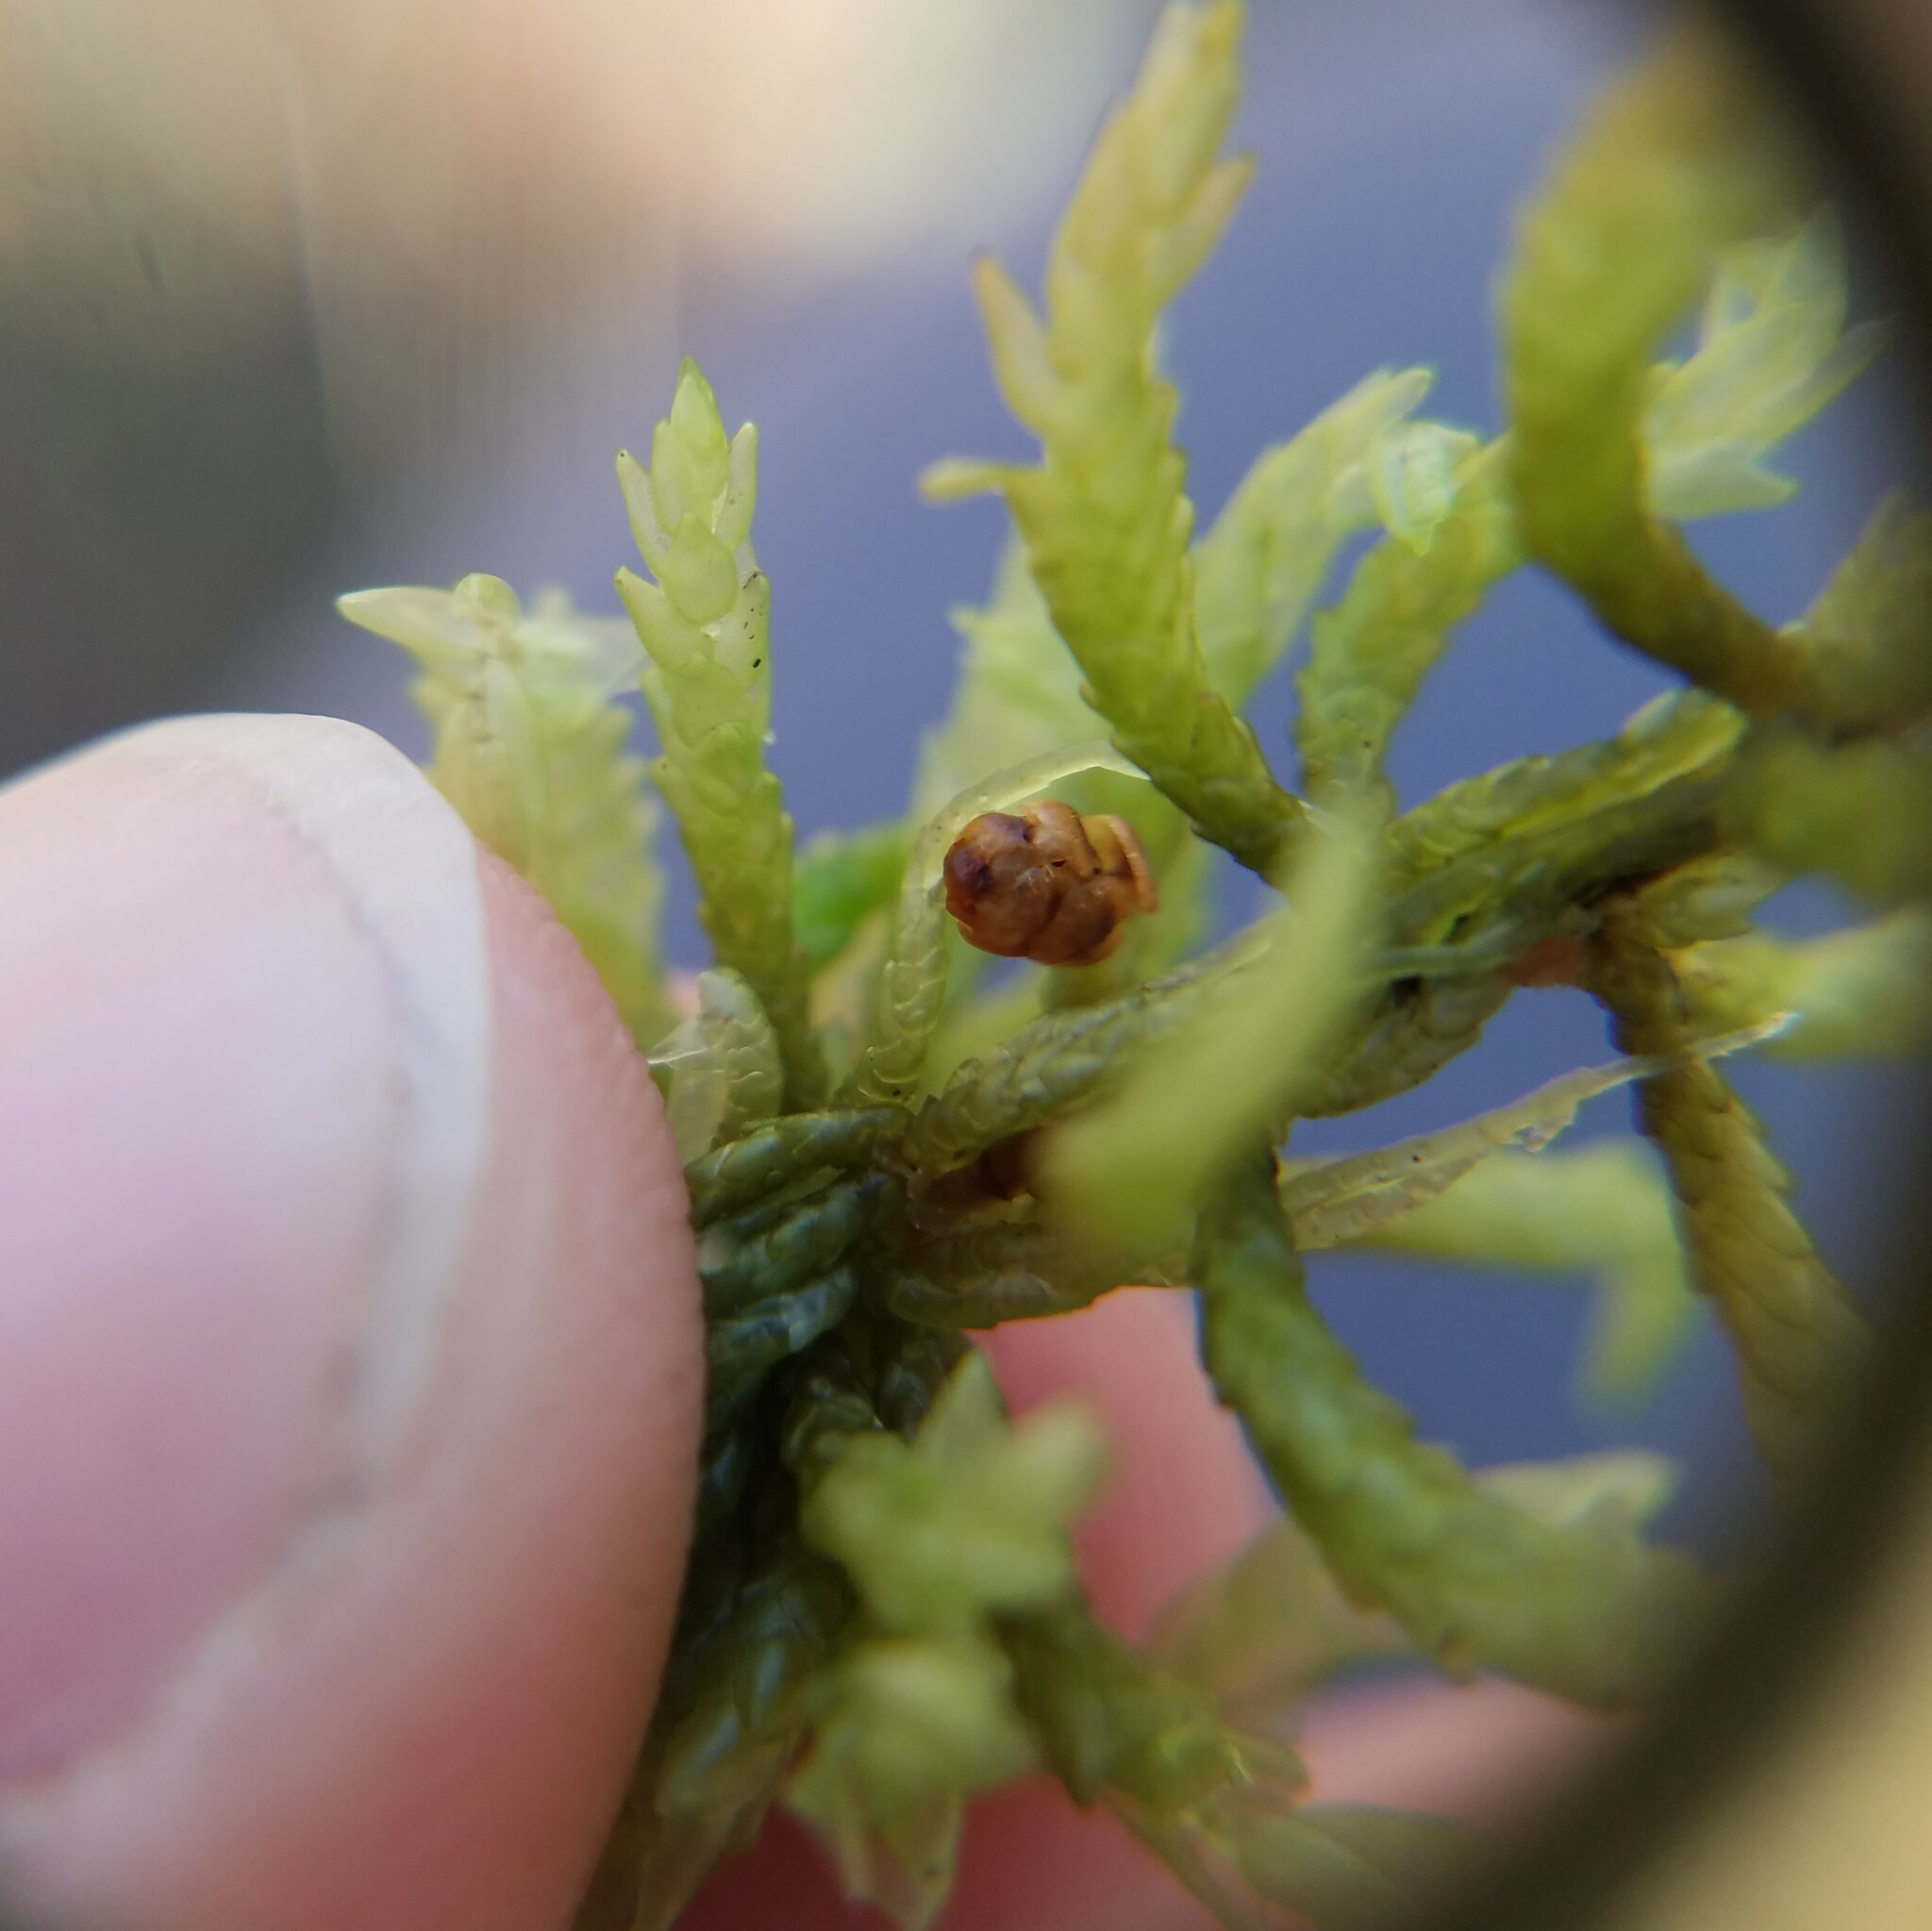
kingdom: Plantae
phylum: Bryophyta
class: Sphagnopsida
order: Sphagnales
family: Sphagnaceae
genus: Sphagnum
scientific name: Sphagnum portoricense
